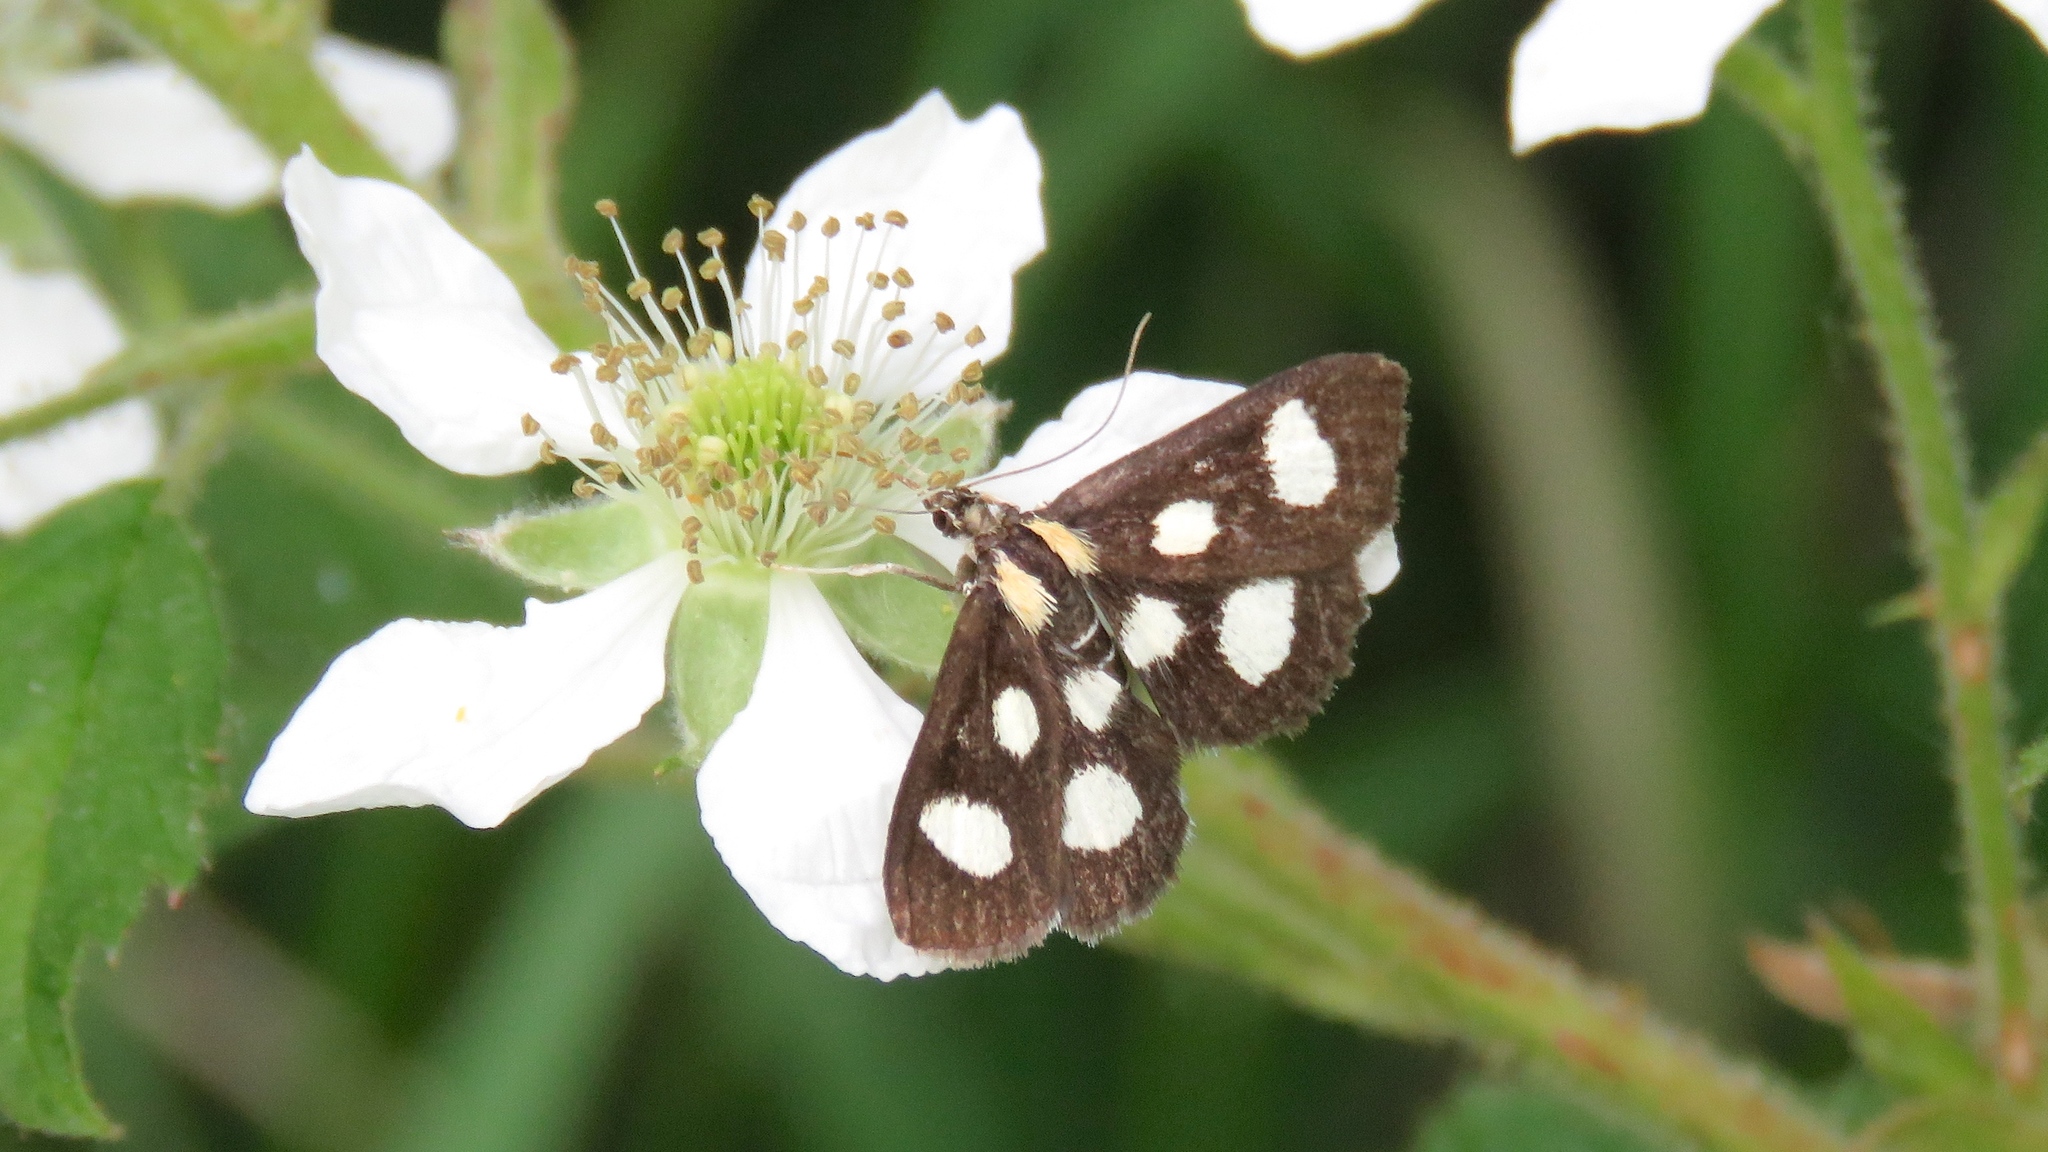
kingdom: Animalia
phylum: Arthropoda
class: Insecta
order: Lepidoptera
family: Crambidae
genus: Anania
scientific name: Anania funebris
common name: White-spotted sable moth
